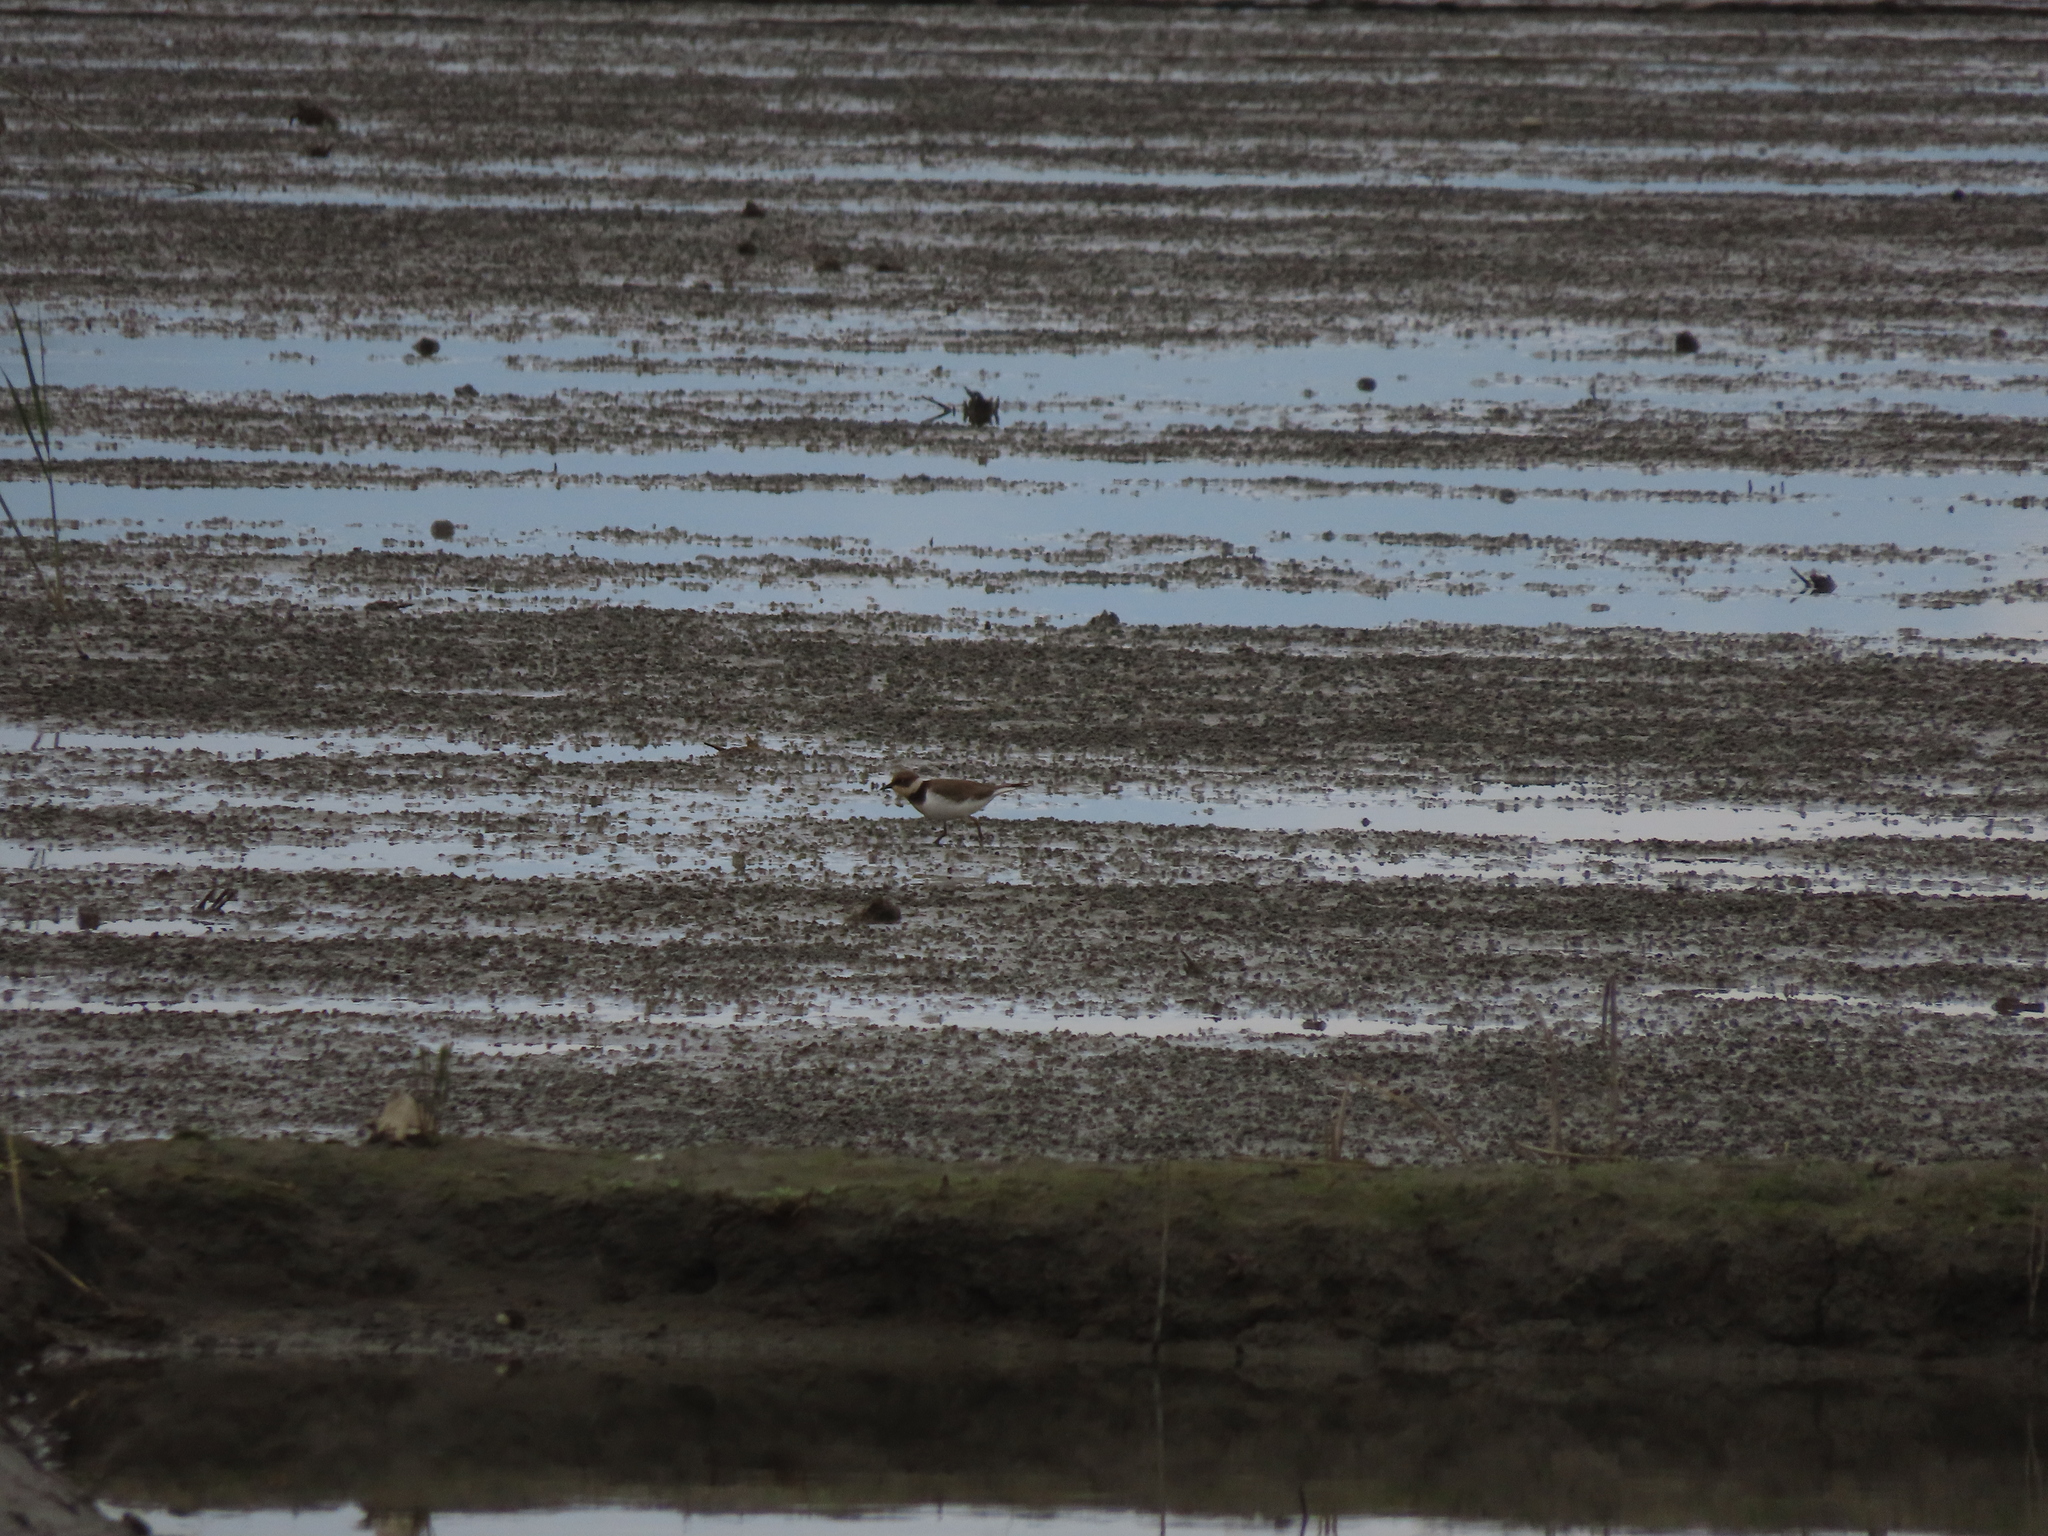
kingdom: Animalia
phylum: Chordata
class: Aves
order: Charadriiformes
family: Charadriidae
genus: Charadrius
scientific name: Charadrius dubius
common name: Little ringed plover
